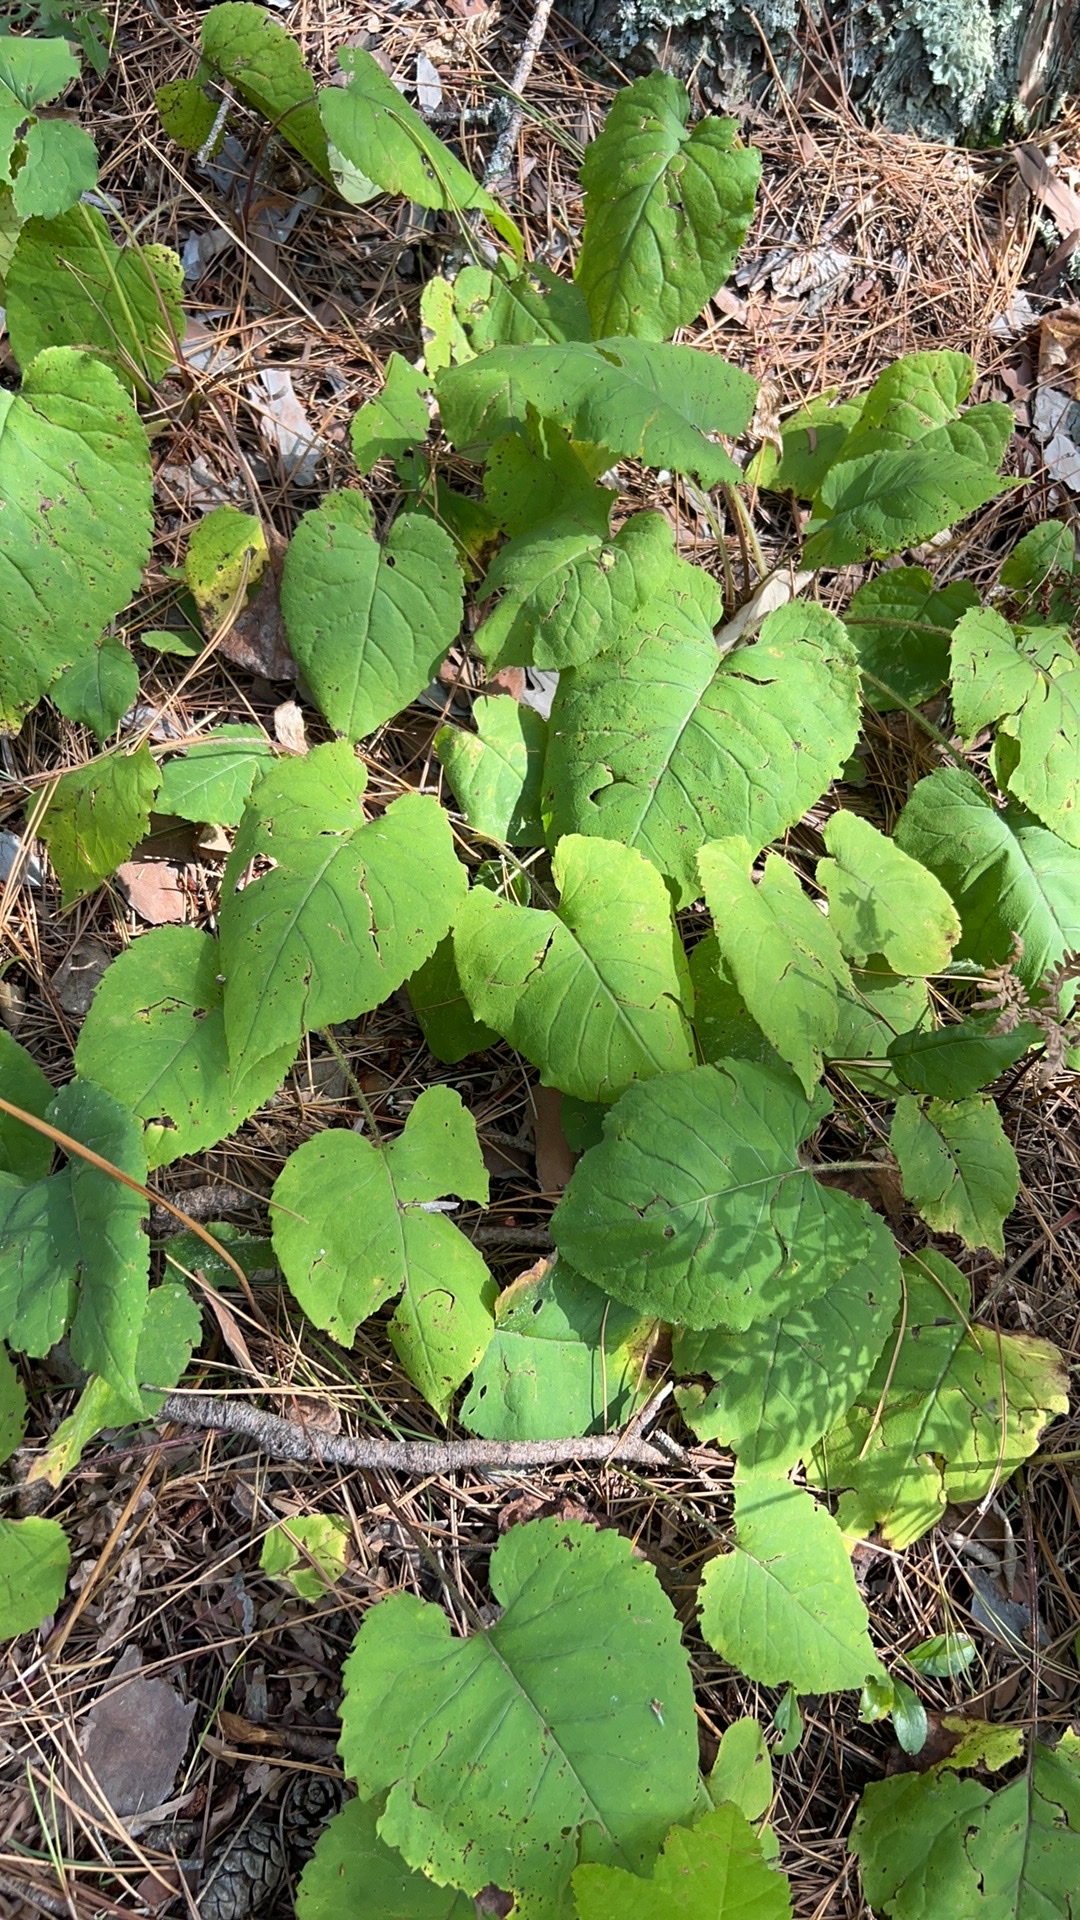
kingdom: Plantae
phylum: Tracheophyta
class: Magnoliopsida
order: Asterales
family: Asteraceae
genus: Eurybia
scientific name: Eurybia macrophylla
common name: Big-leaved aster
